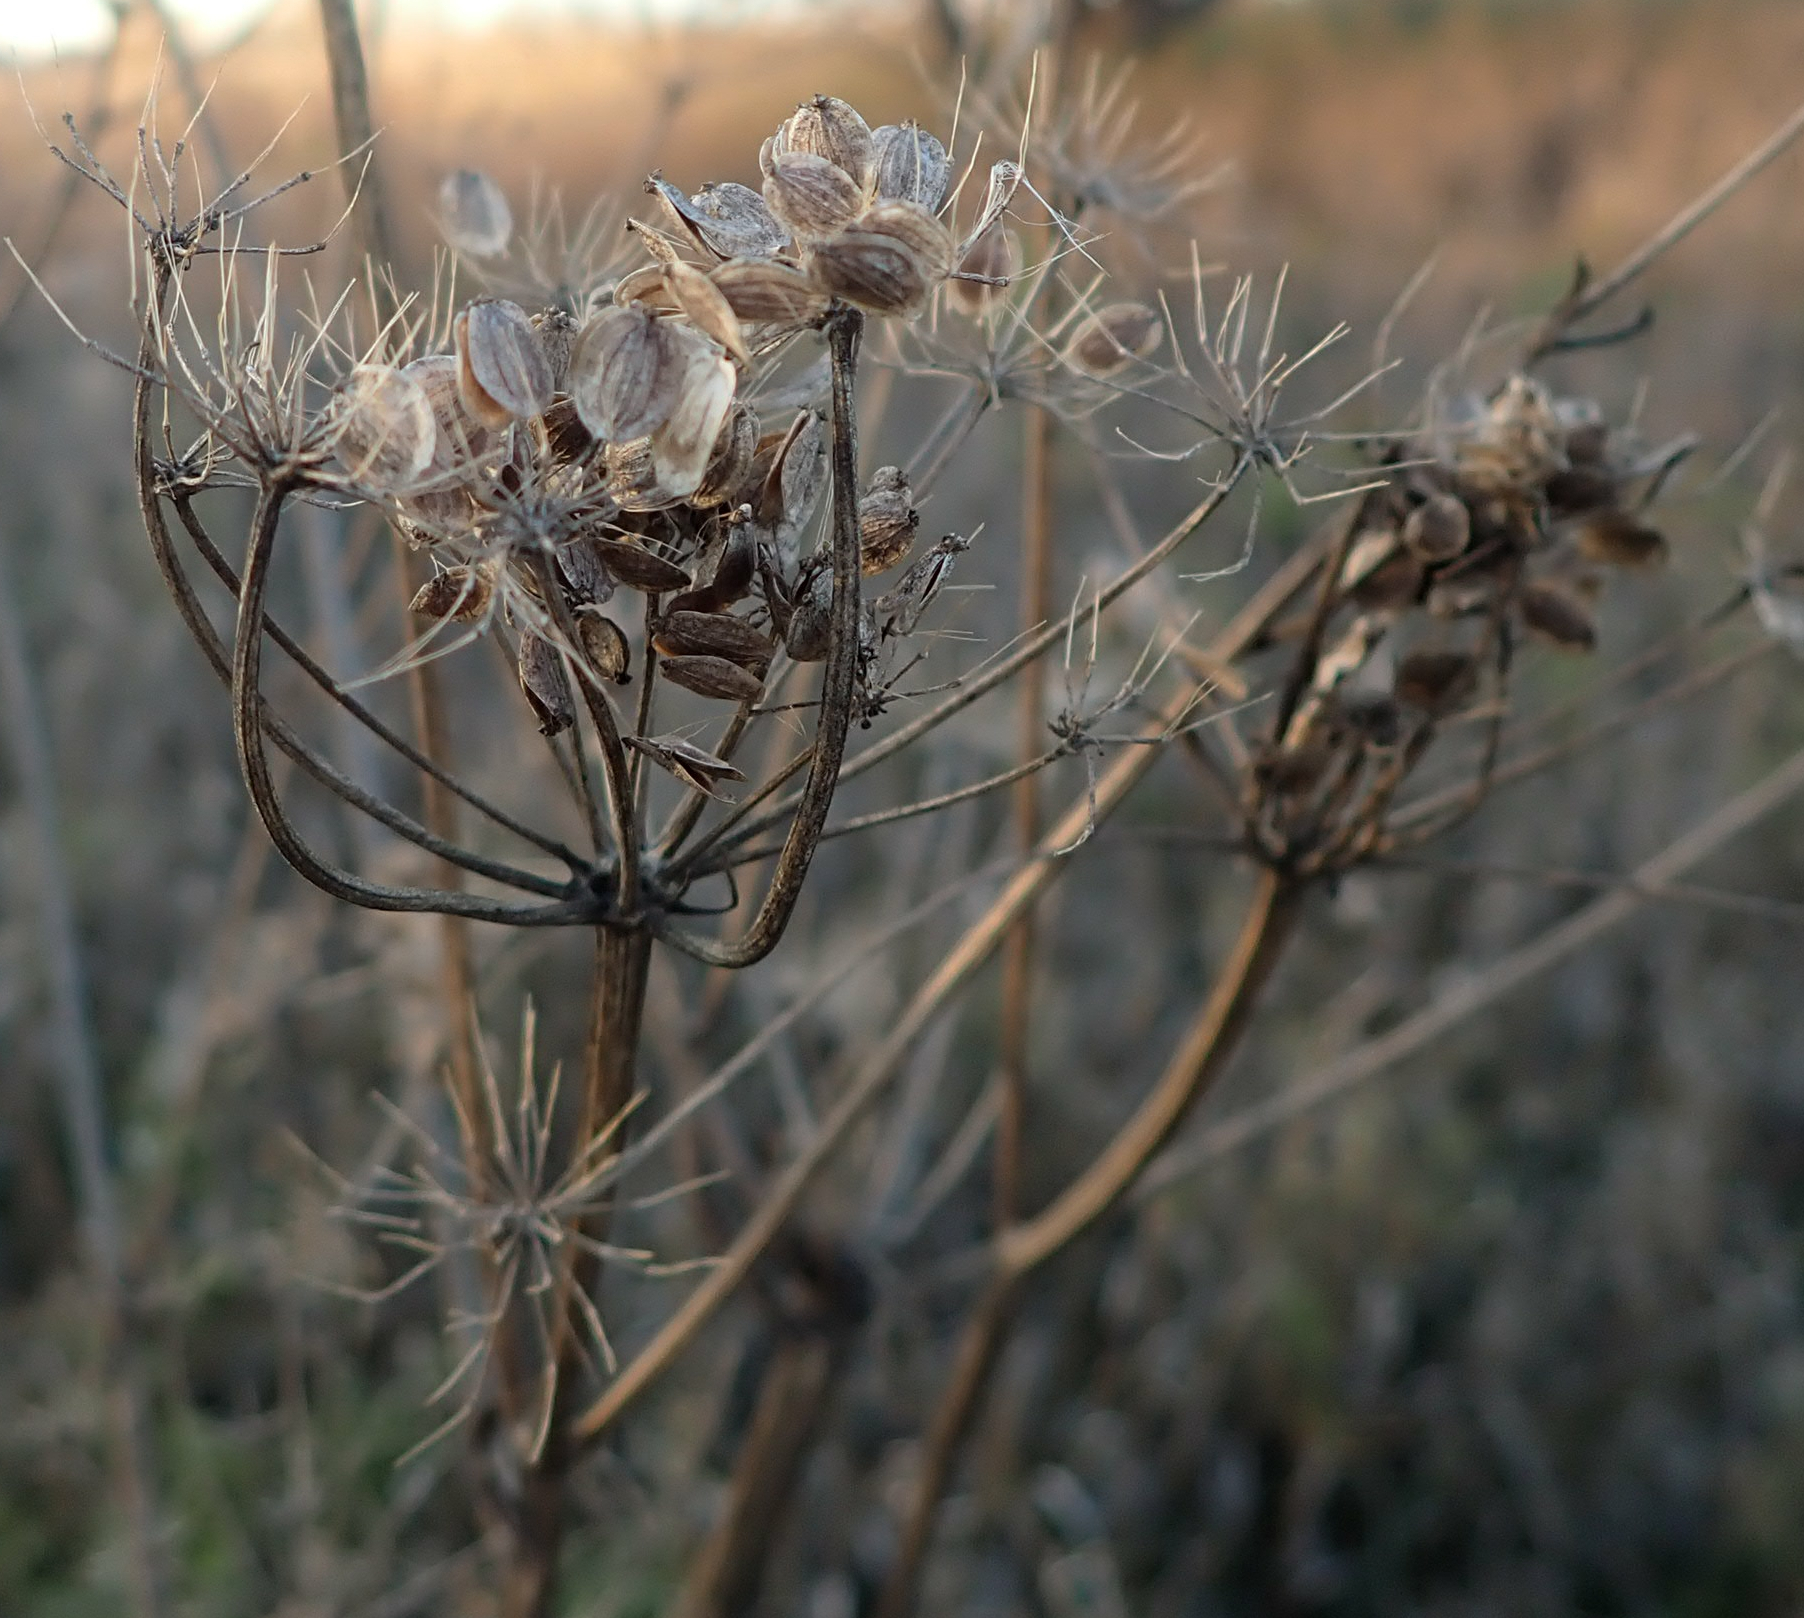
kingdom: Plantae
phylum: Tracheophyta
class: Magnoliopsida
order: Apiales
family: Apiaceae
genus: Heracleum
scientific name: Heracleum maximum
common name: American cow parsnip
